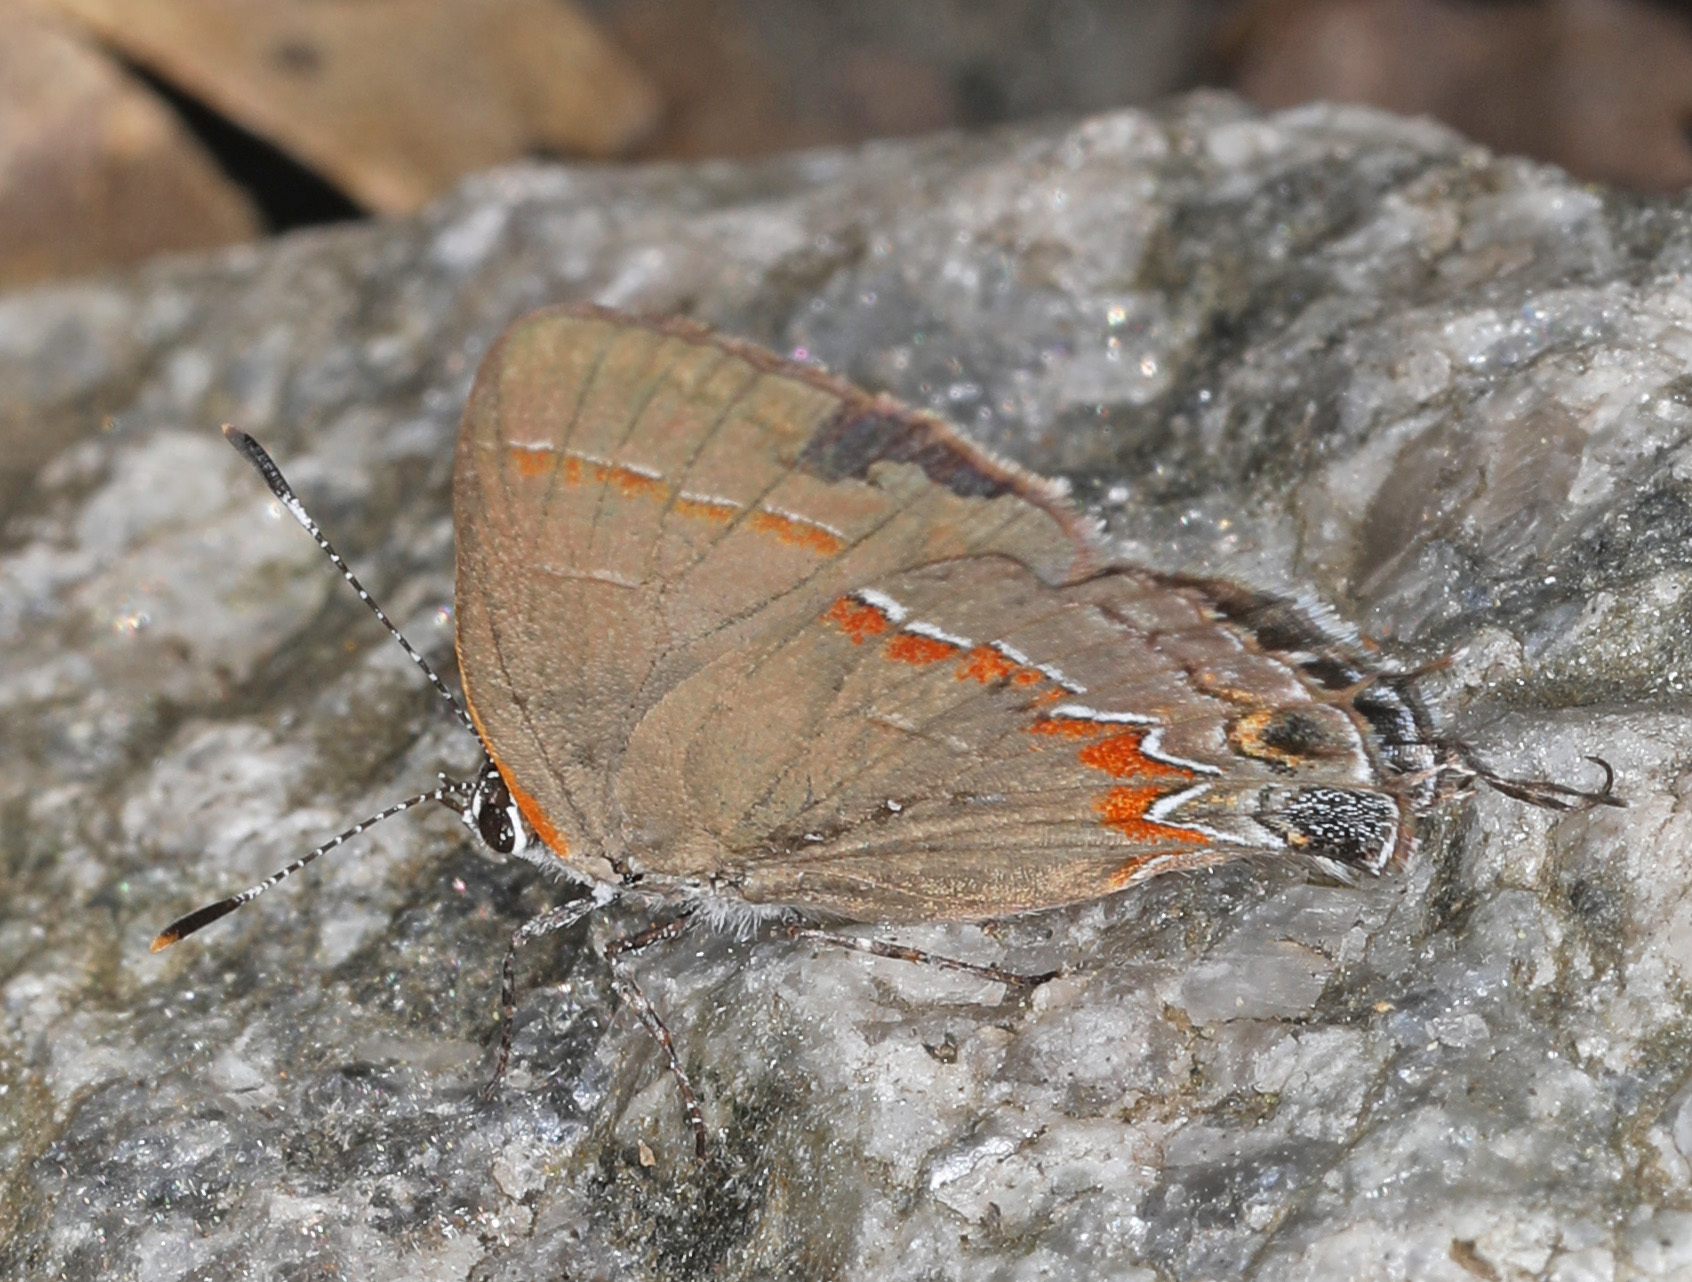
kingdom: Animalia
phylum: Arthropoda
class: Insecta
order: Lepidoptera
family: Lycaenidae
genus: Calycopis
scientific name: Calycopis cecrops
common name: Red-banded hairstreak
